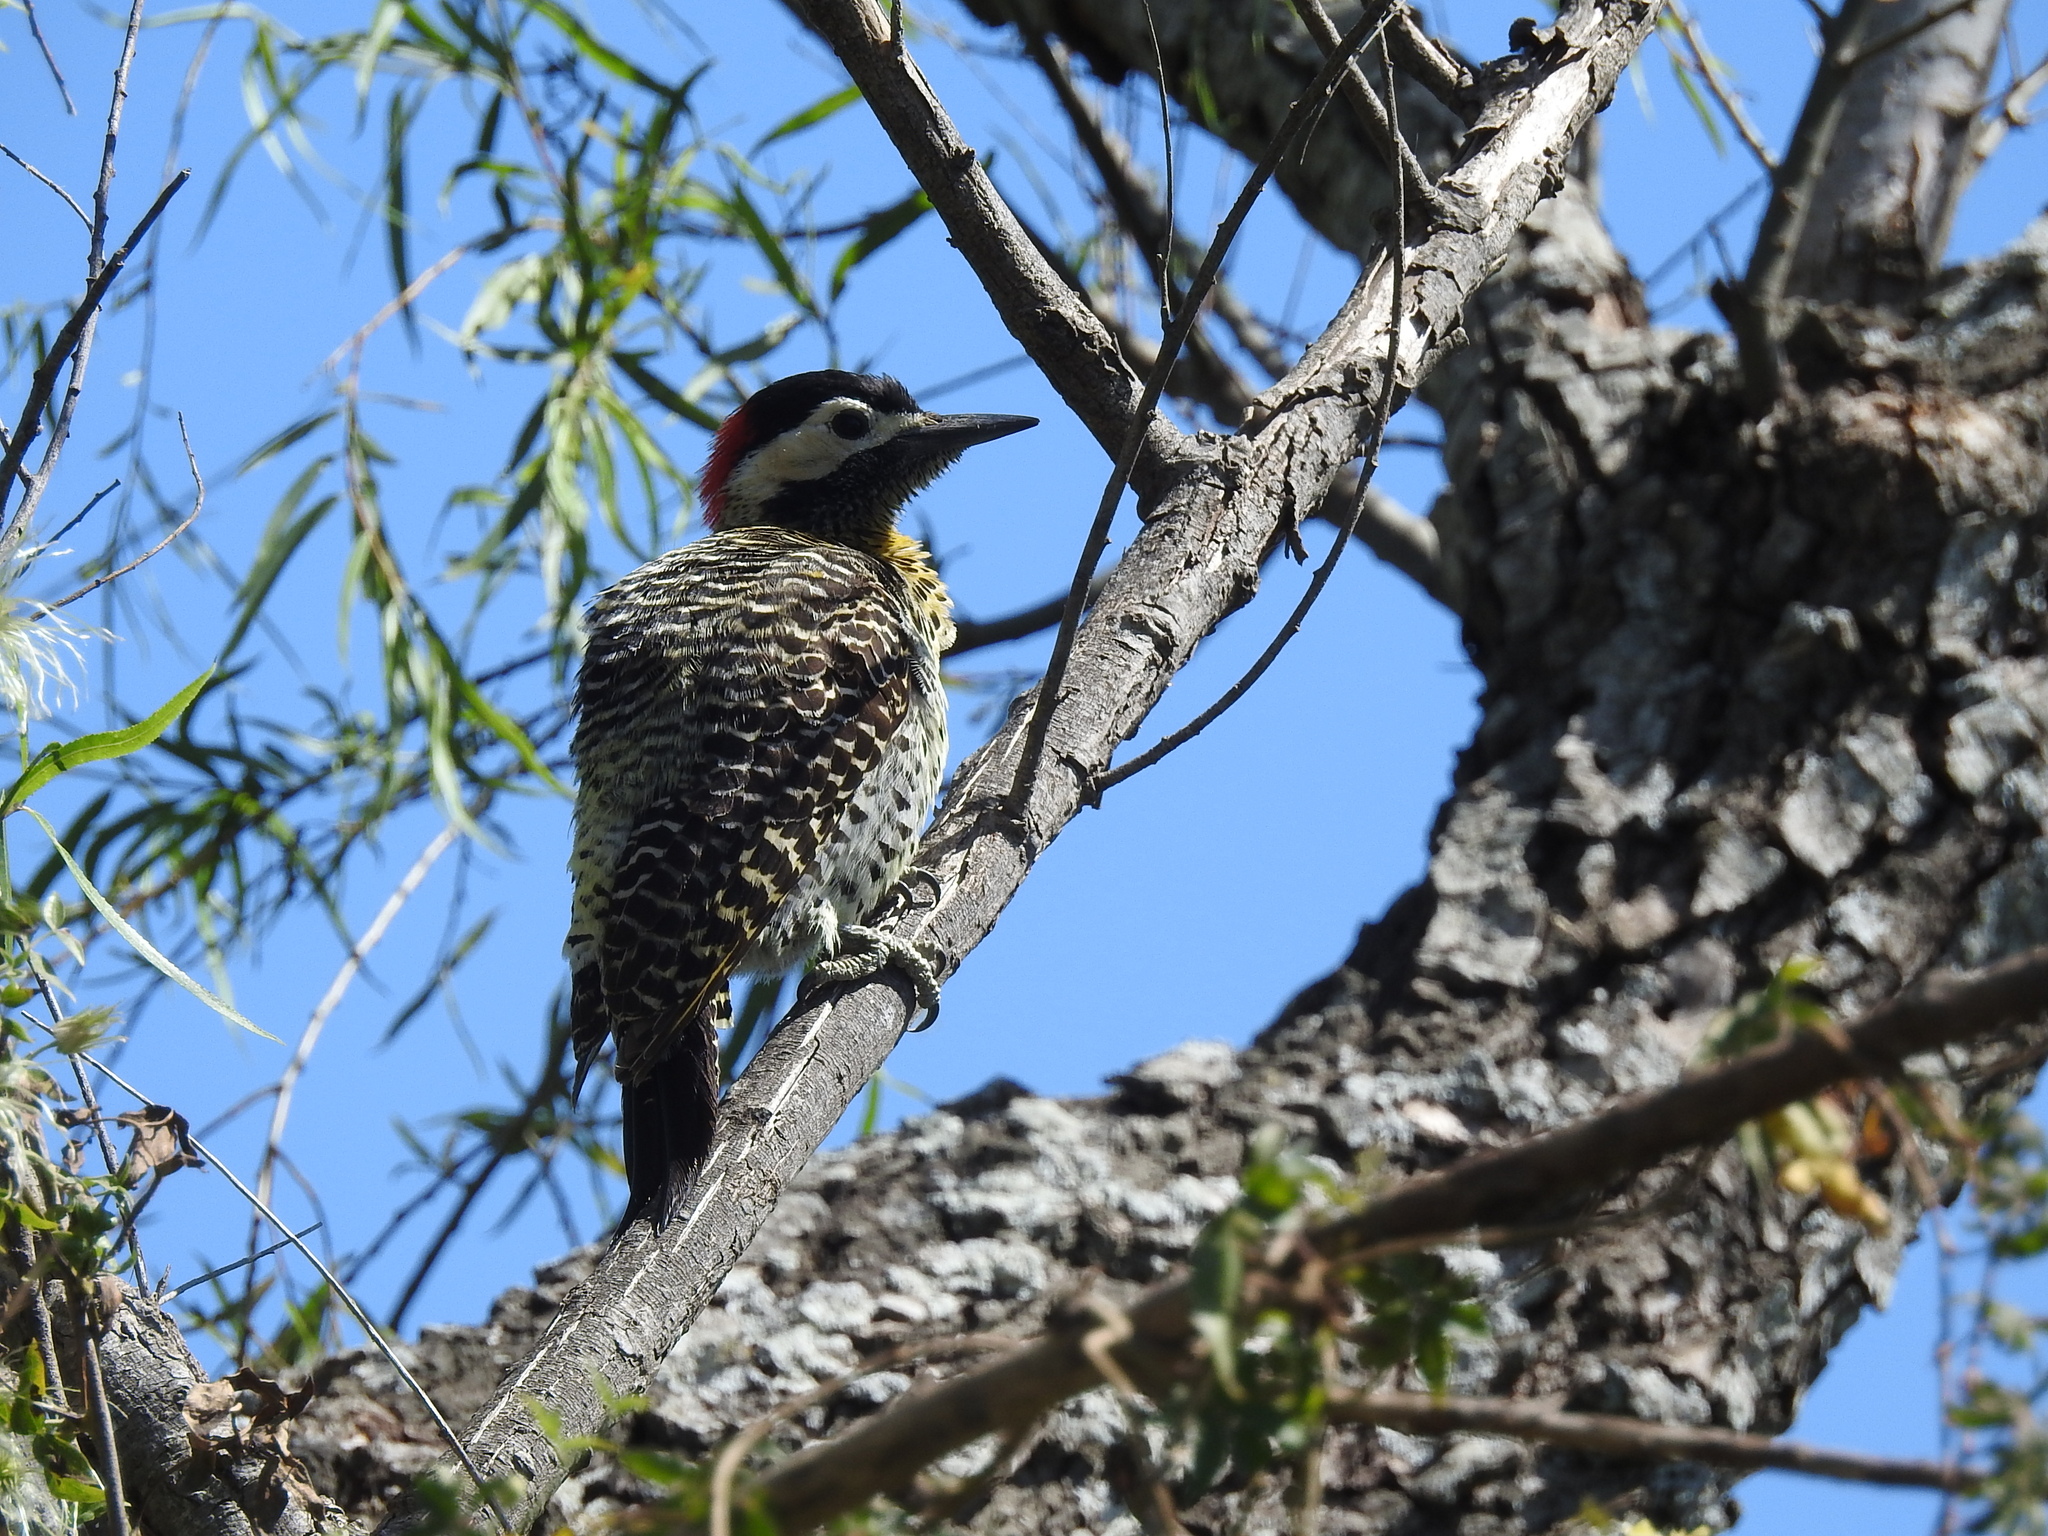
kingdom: Animalia
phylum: Chordata
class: Aves
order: Piciformes
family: Picidae
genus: Colaptes
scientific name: Colaptes melanochloros
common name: Green-barred woodpecker
